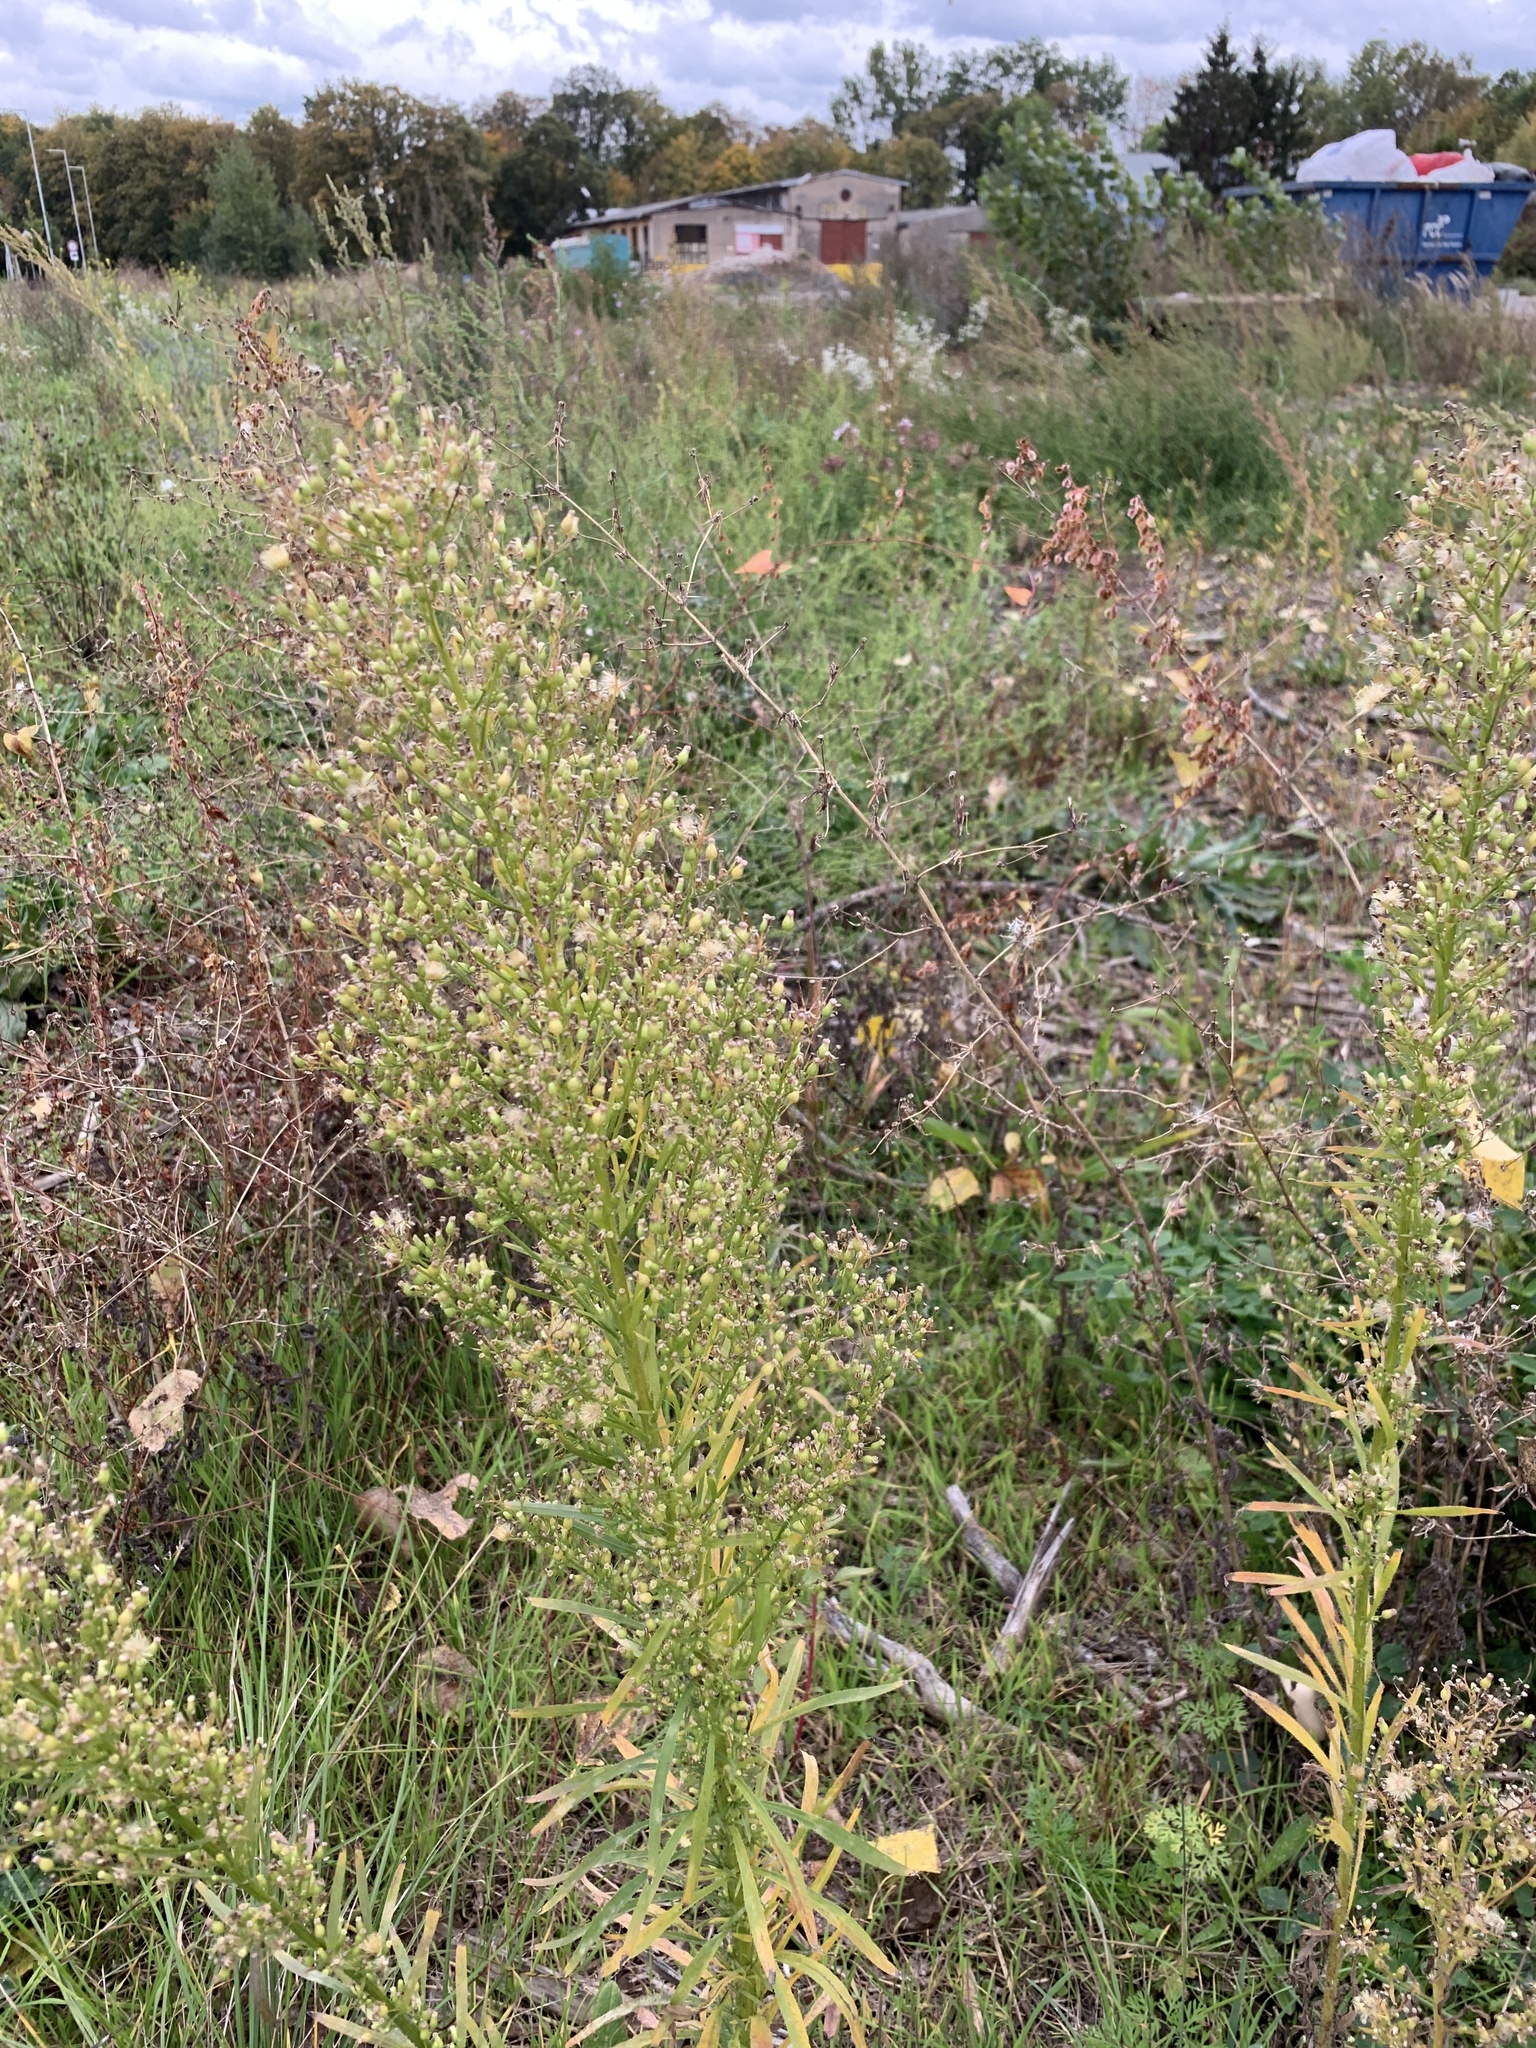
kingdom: Plantae
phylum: Tracheophyta
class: Magnoliopsida
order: Asterales
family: Asteraceae
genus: Erigeron
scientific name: Erigeron canadensis
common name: Canadian fleabane
